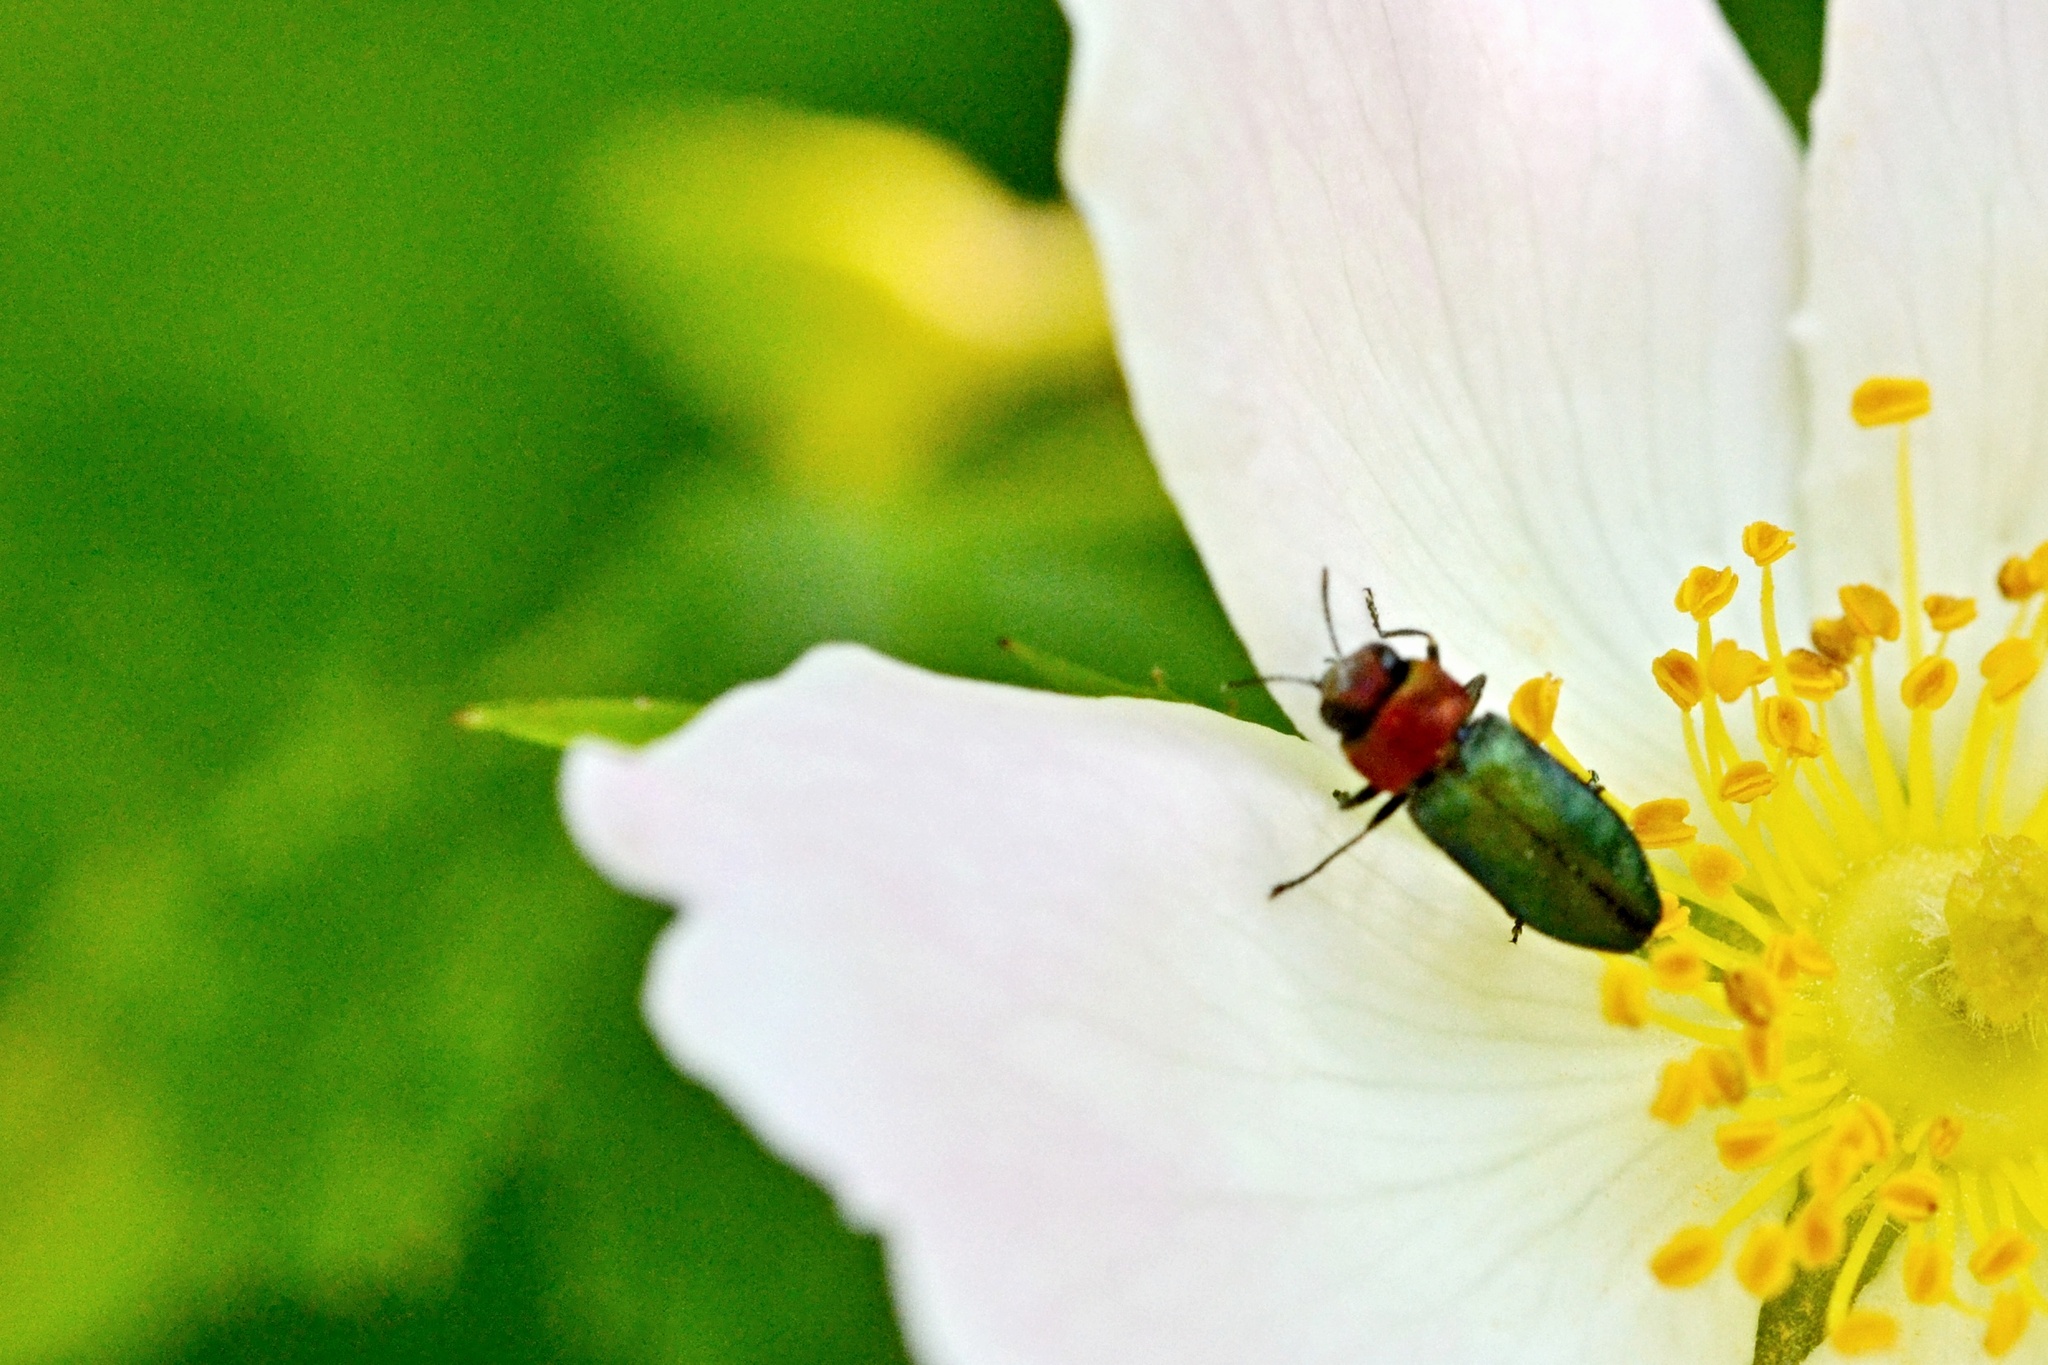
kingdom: Animalia
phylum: Arthropoda
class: Insecta
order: Coleoptera
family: Buprestidae
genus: Anthaxia
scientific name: Anthaxia nitidula
